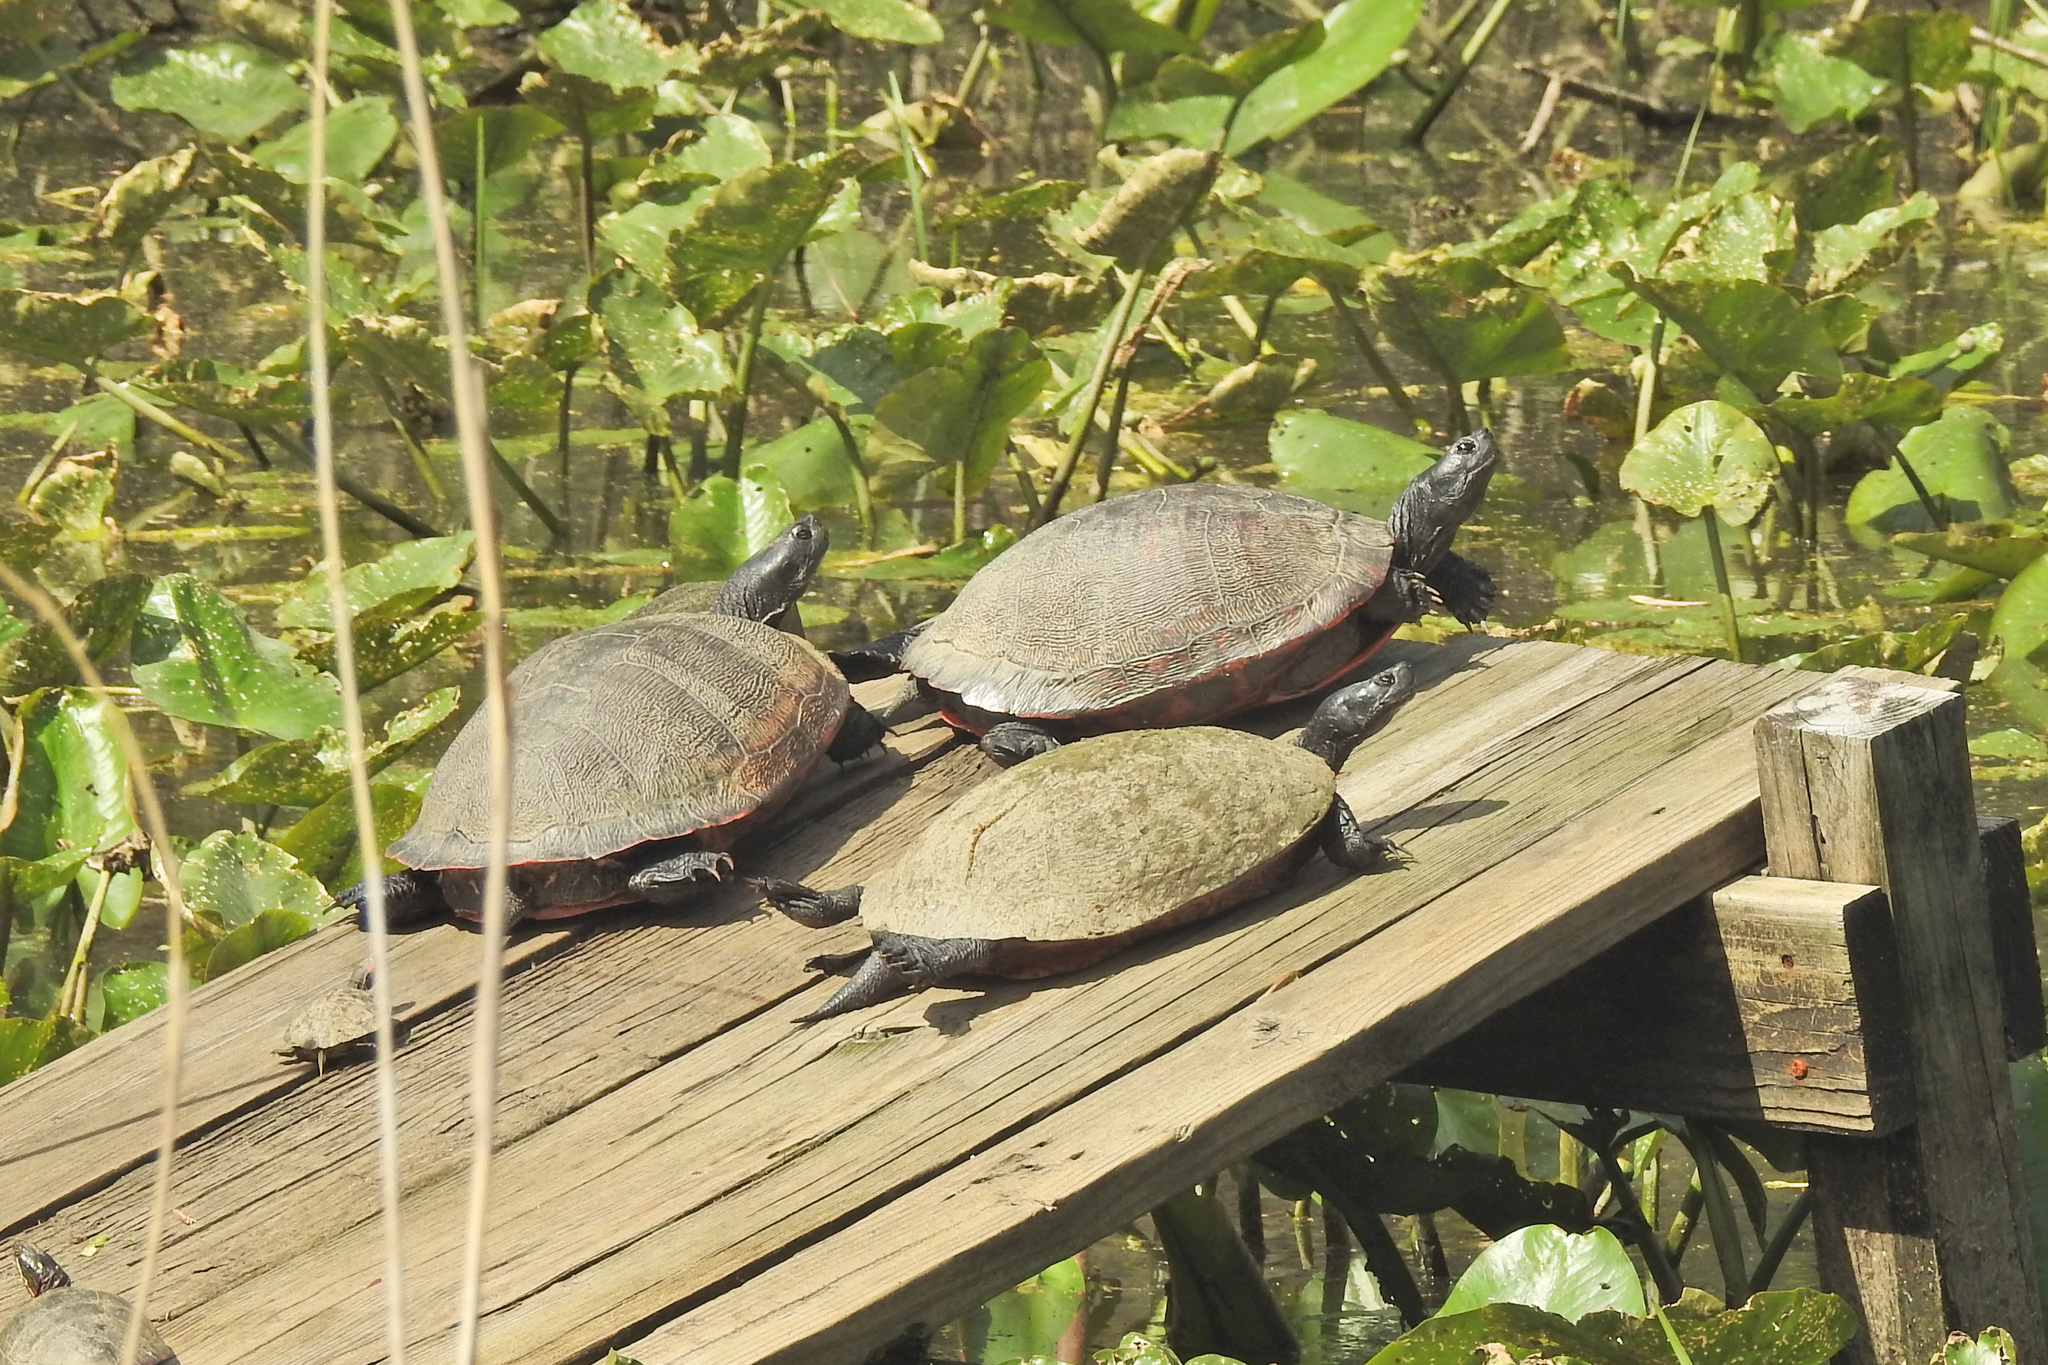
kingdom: Animalia
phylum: Chordata
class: Testudines
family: Emydidae
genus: Pseudemys
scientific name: Pseudemys rubriventris
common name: American red-bellied turtle
